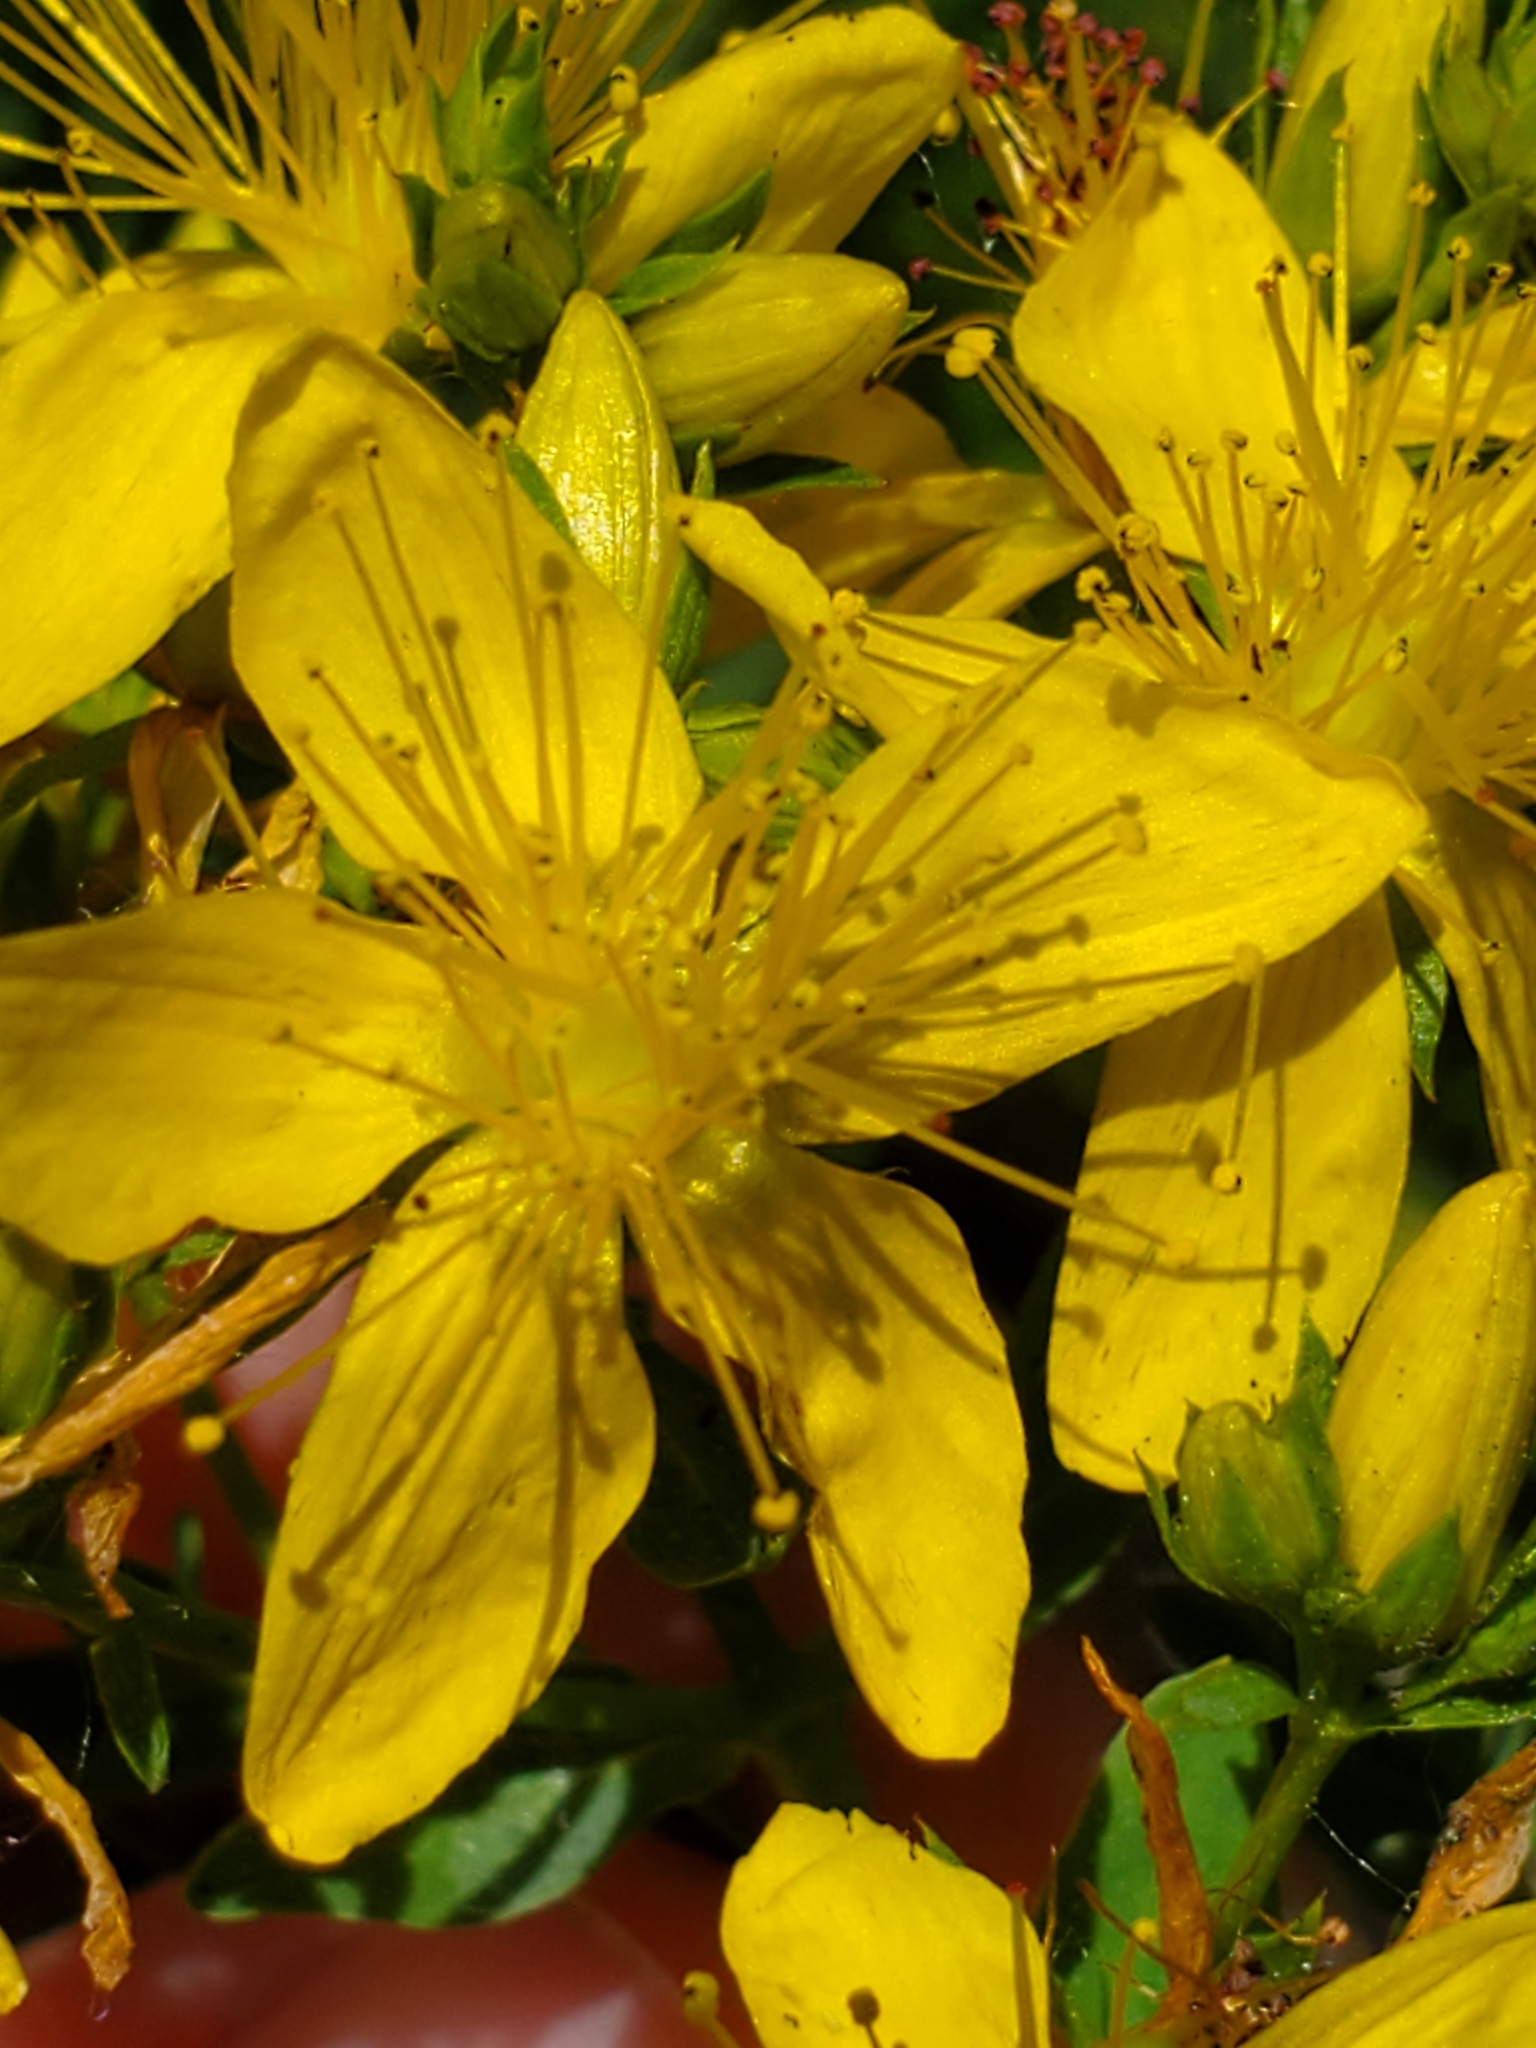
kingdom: Plantae
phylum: Tracheophyta
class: Magnoliopsida
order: Malpighiales
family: Hypericaceae
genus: Hypericum
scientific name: Hypericum perforatum
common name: Common st. johnswort
